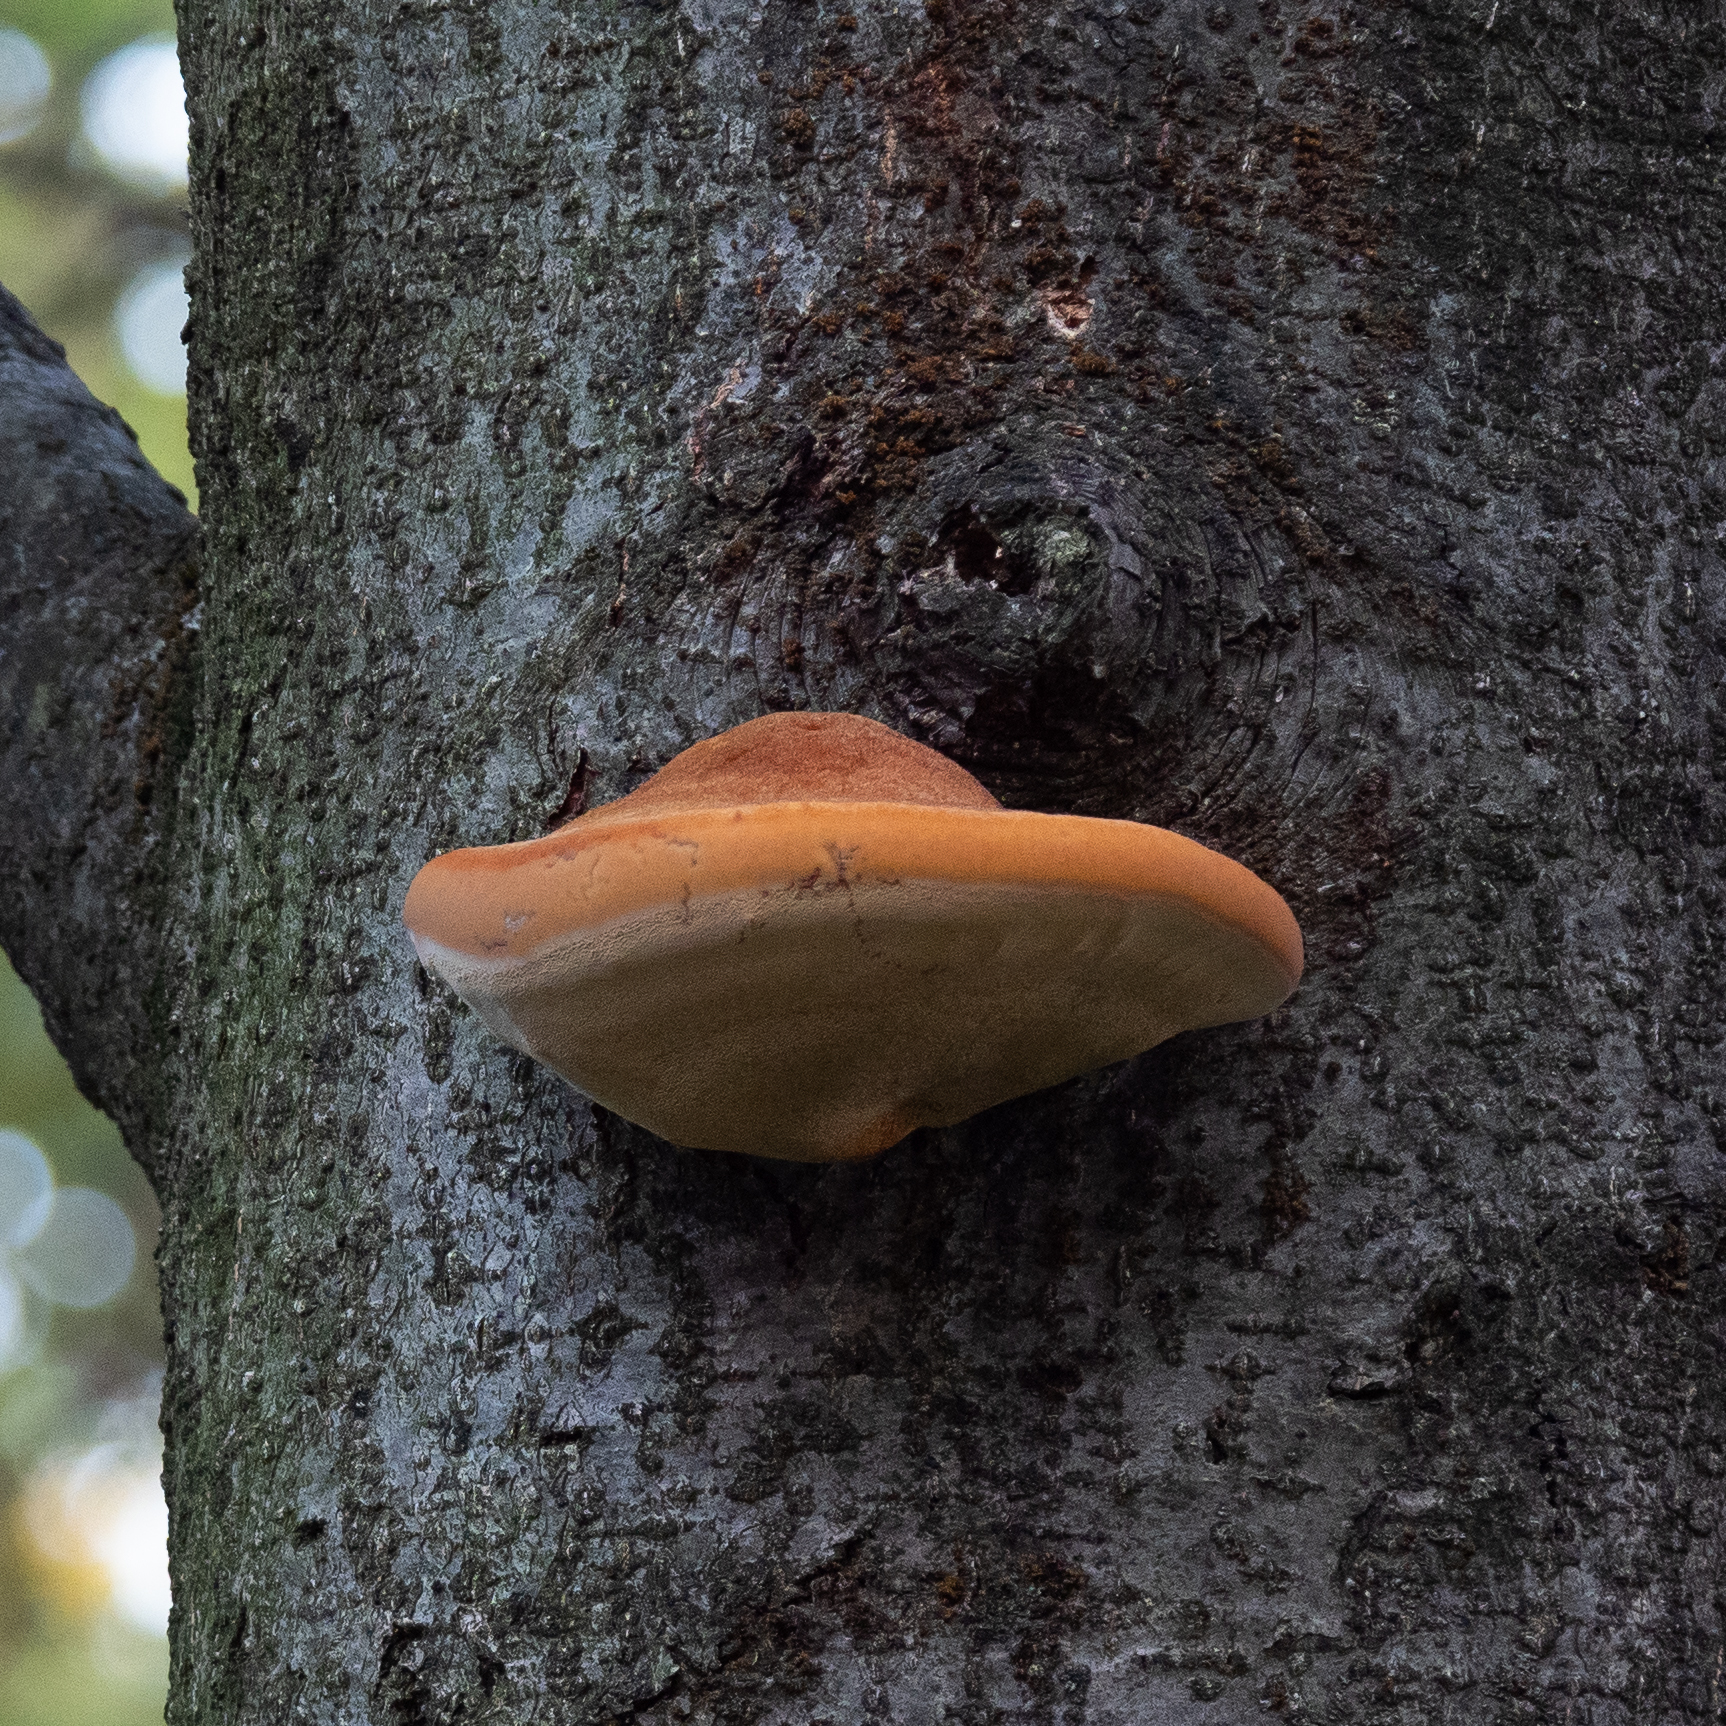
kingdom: Fungi
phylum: Basidiomycota
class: Agaricomycetes
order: Hymenochaetales
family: Hymenochaetaceae
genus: Inonotus
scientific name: Inonotus hispidus
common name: Shaggy bracket
